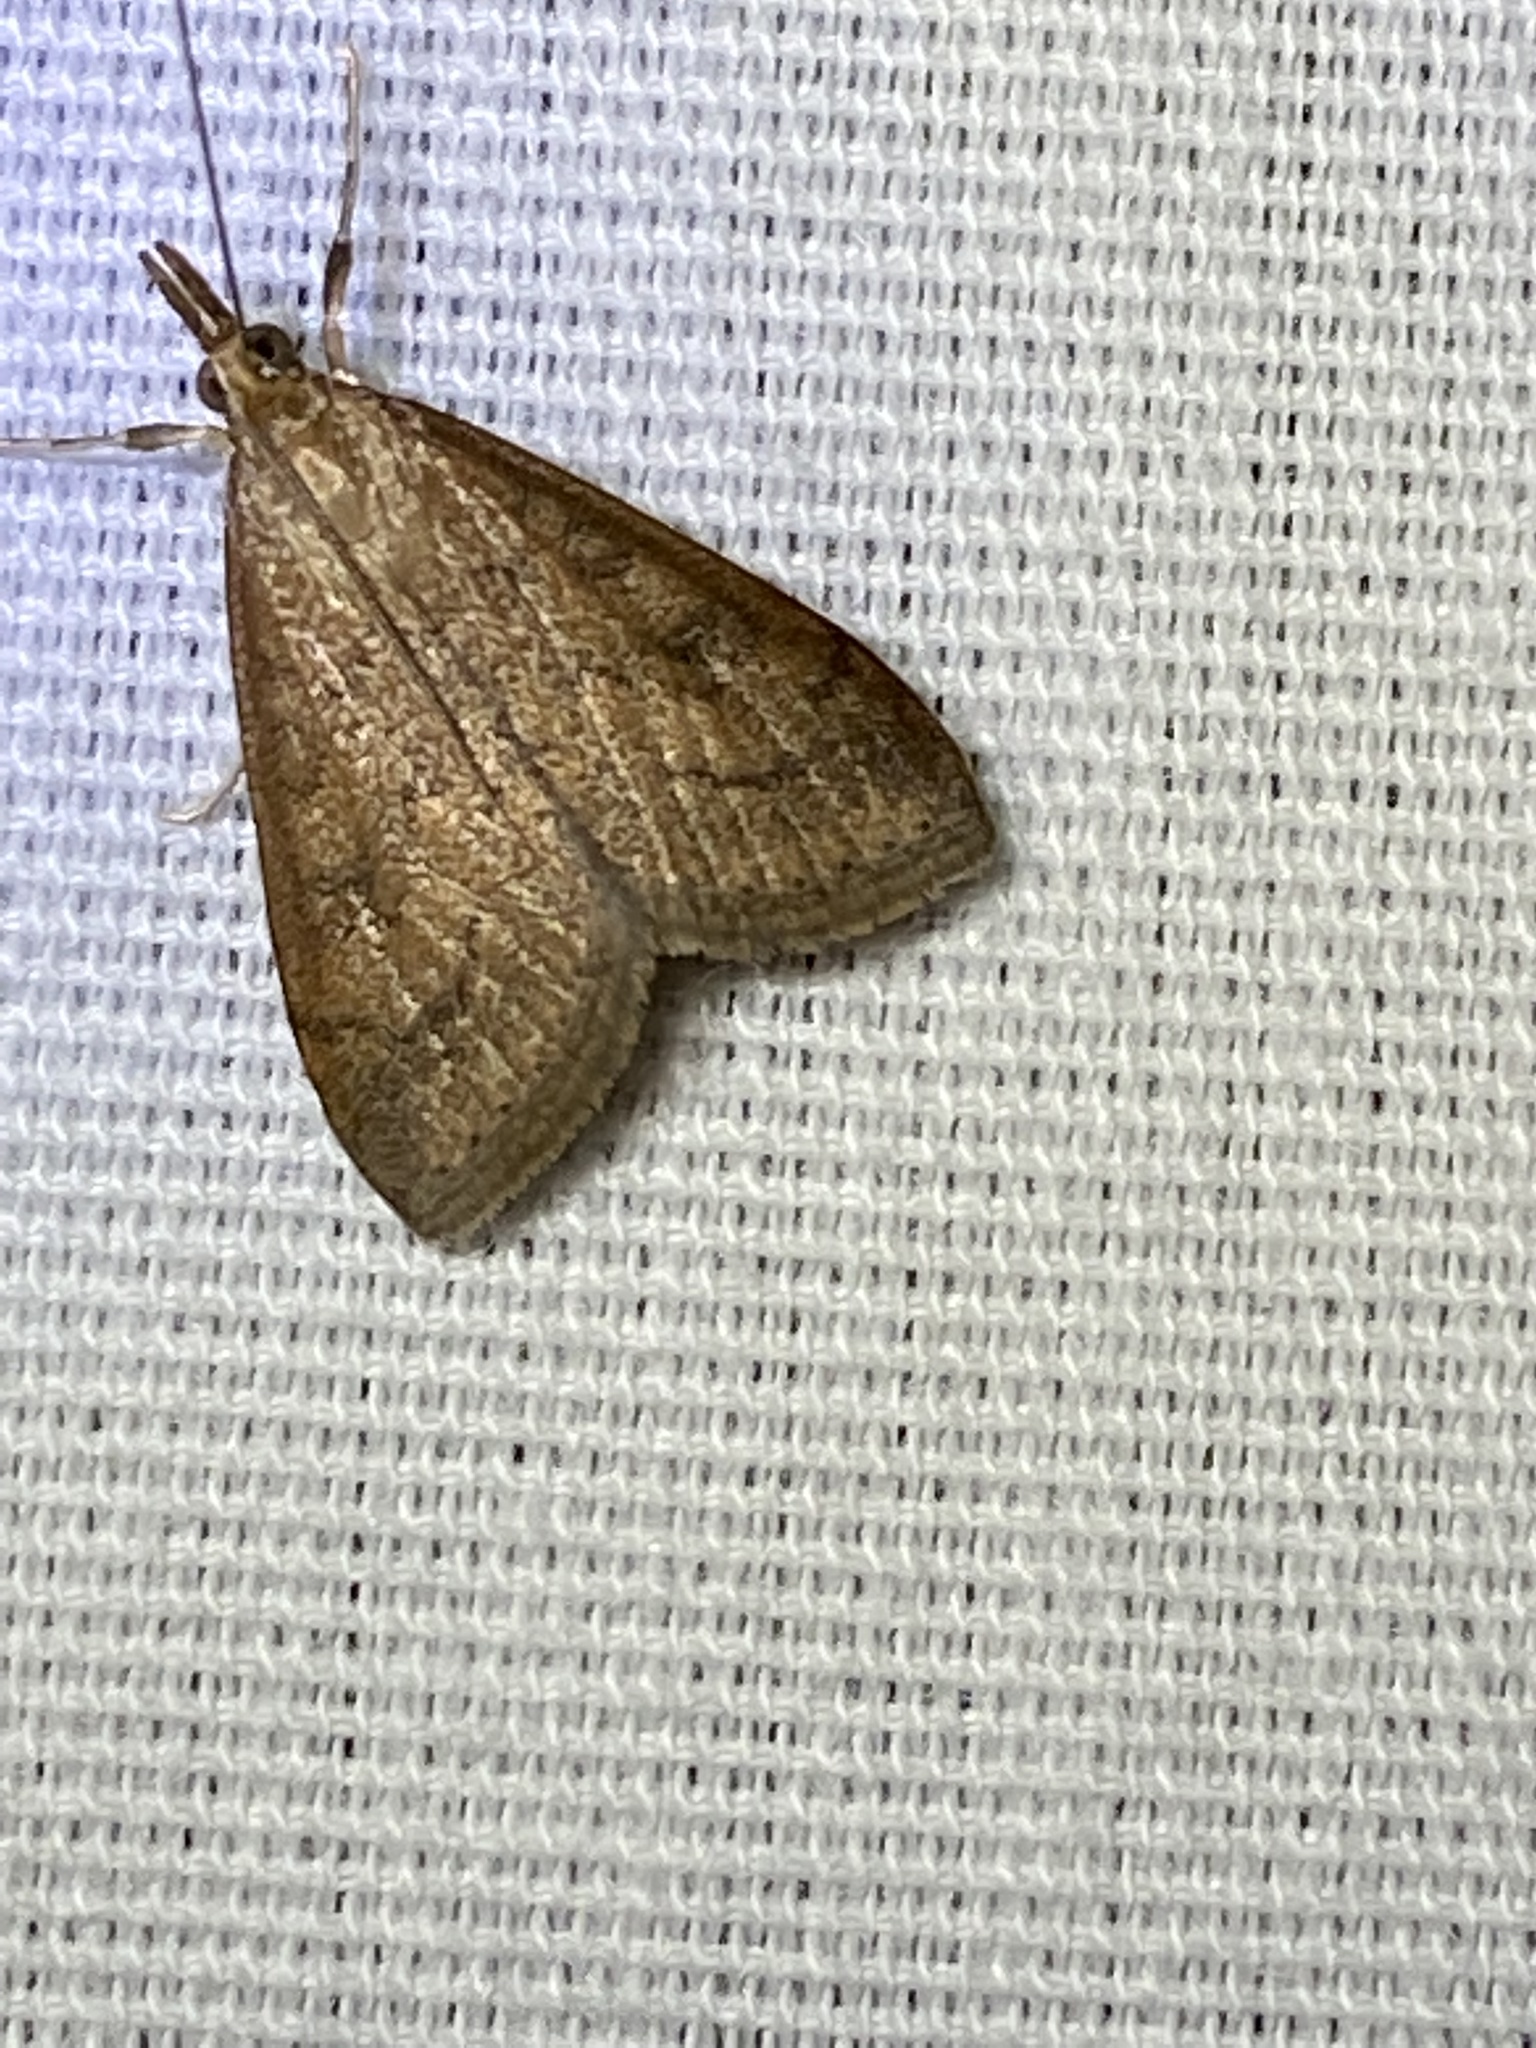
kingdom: Animalia
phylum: Arthropoda
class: Insecta
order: Lepidoptera
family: Crambidae
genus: Udea
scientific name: Udea rubigalis
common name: Celery leaftier moth
